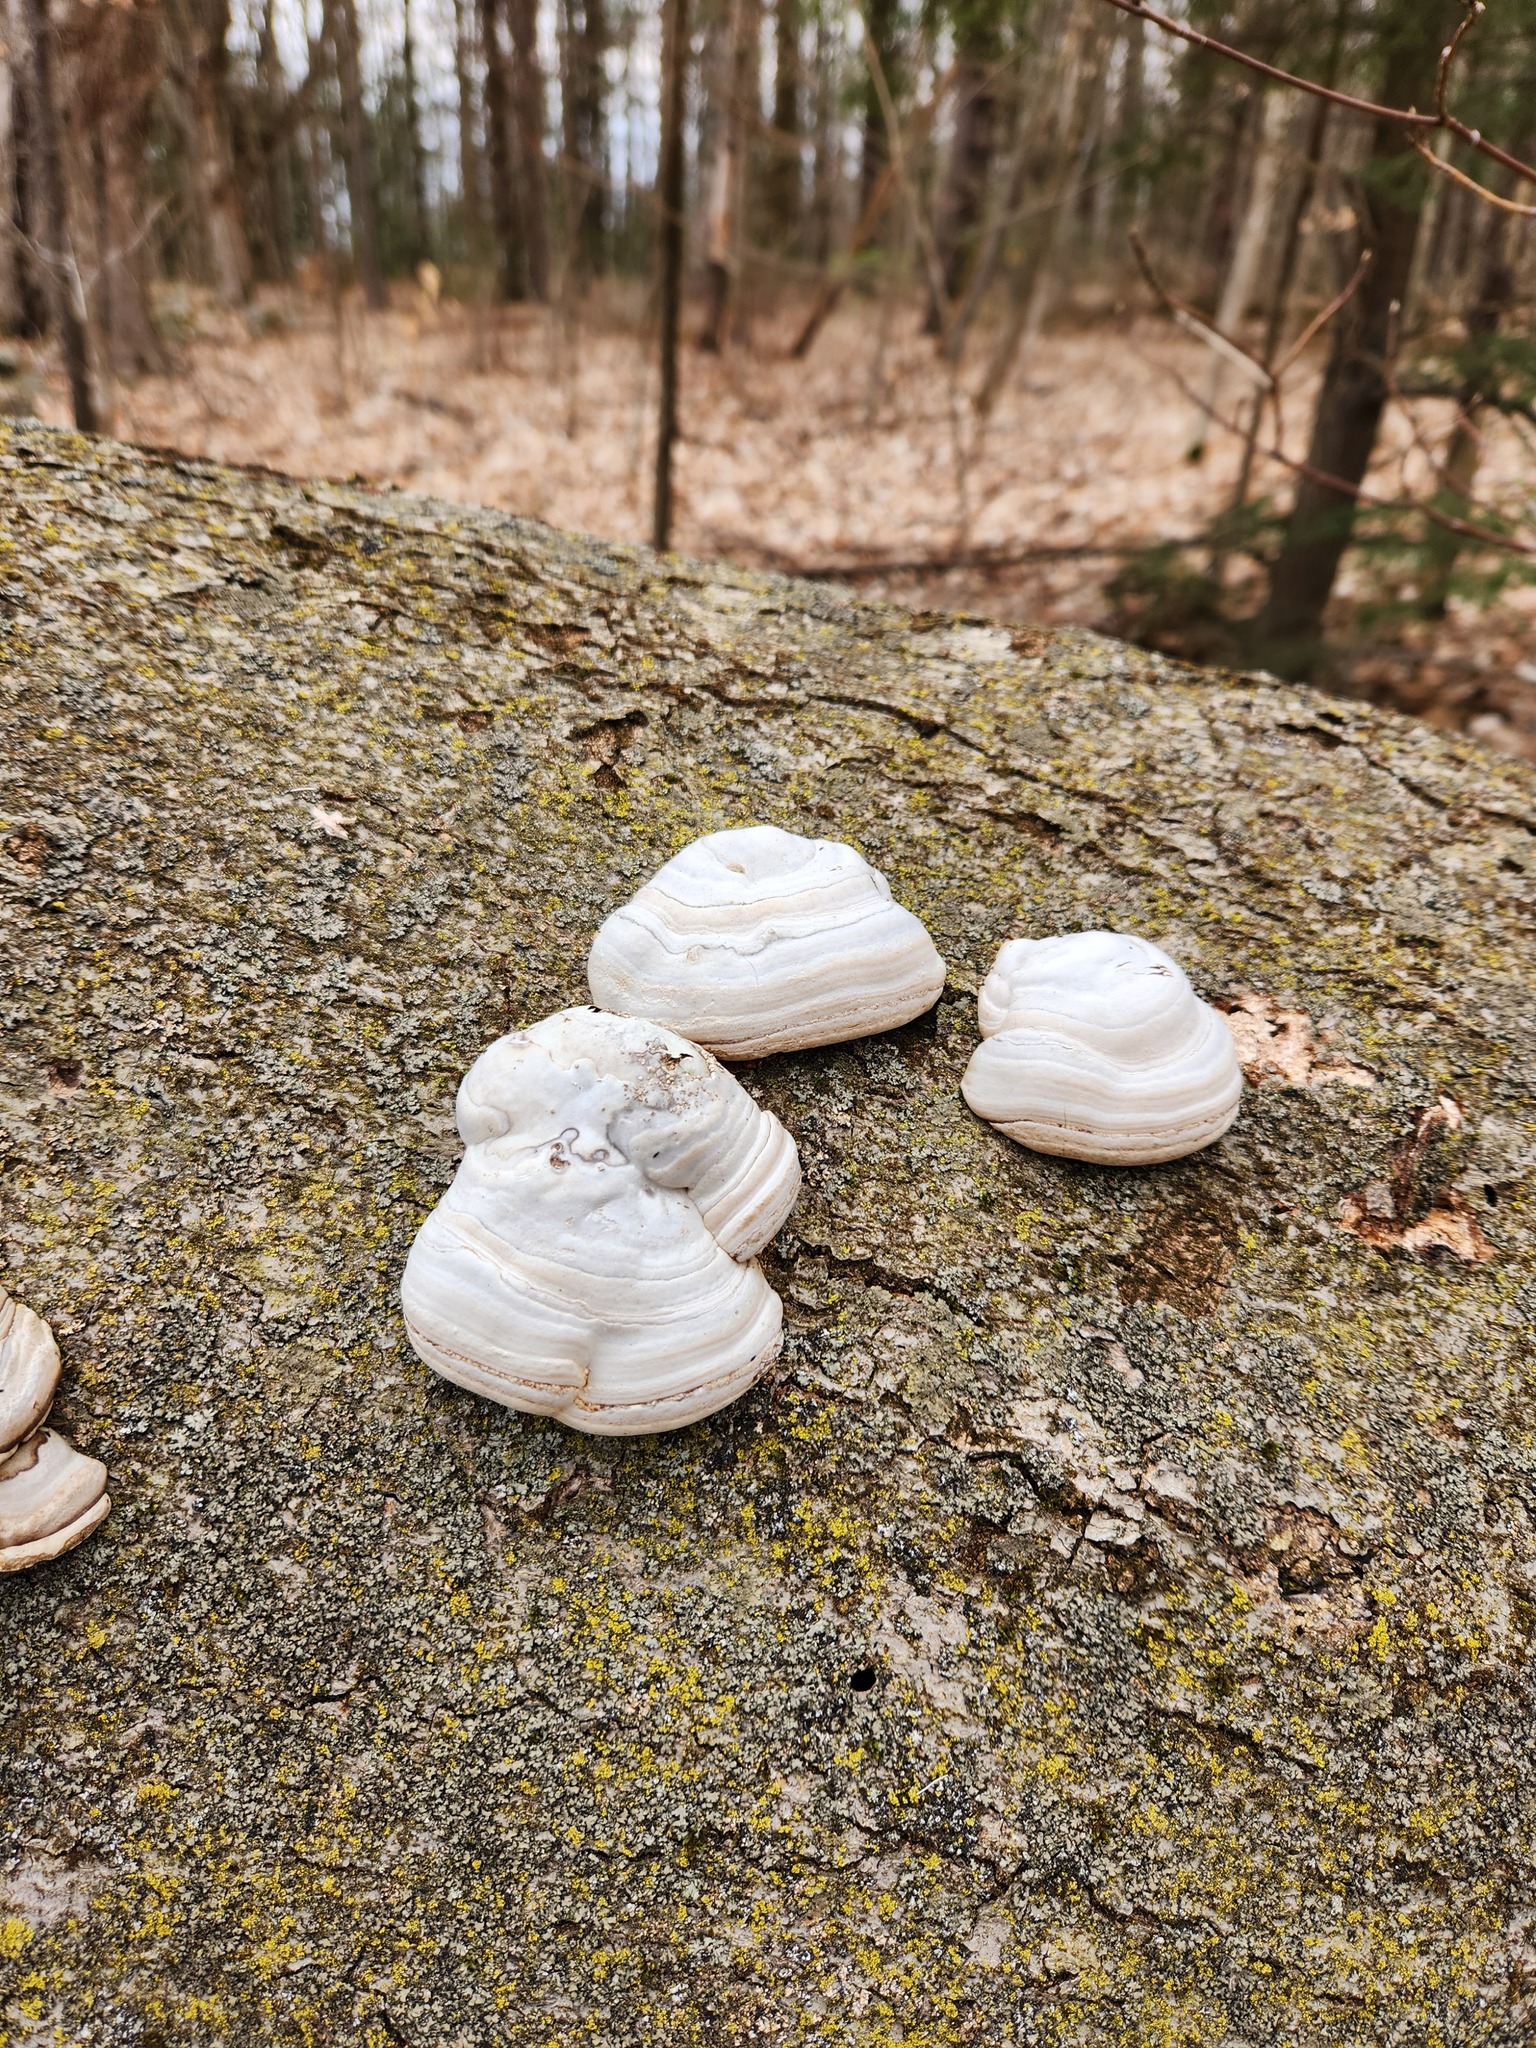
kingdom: Fungi
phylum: Basidiomycota
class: Agaricomycetes
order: Polyporales
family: Polyporaceae
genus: Fomes
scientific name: Fomes fomentarius
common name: Hoof fungus
